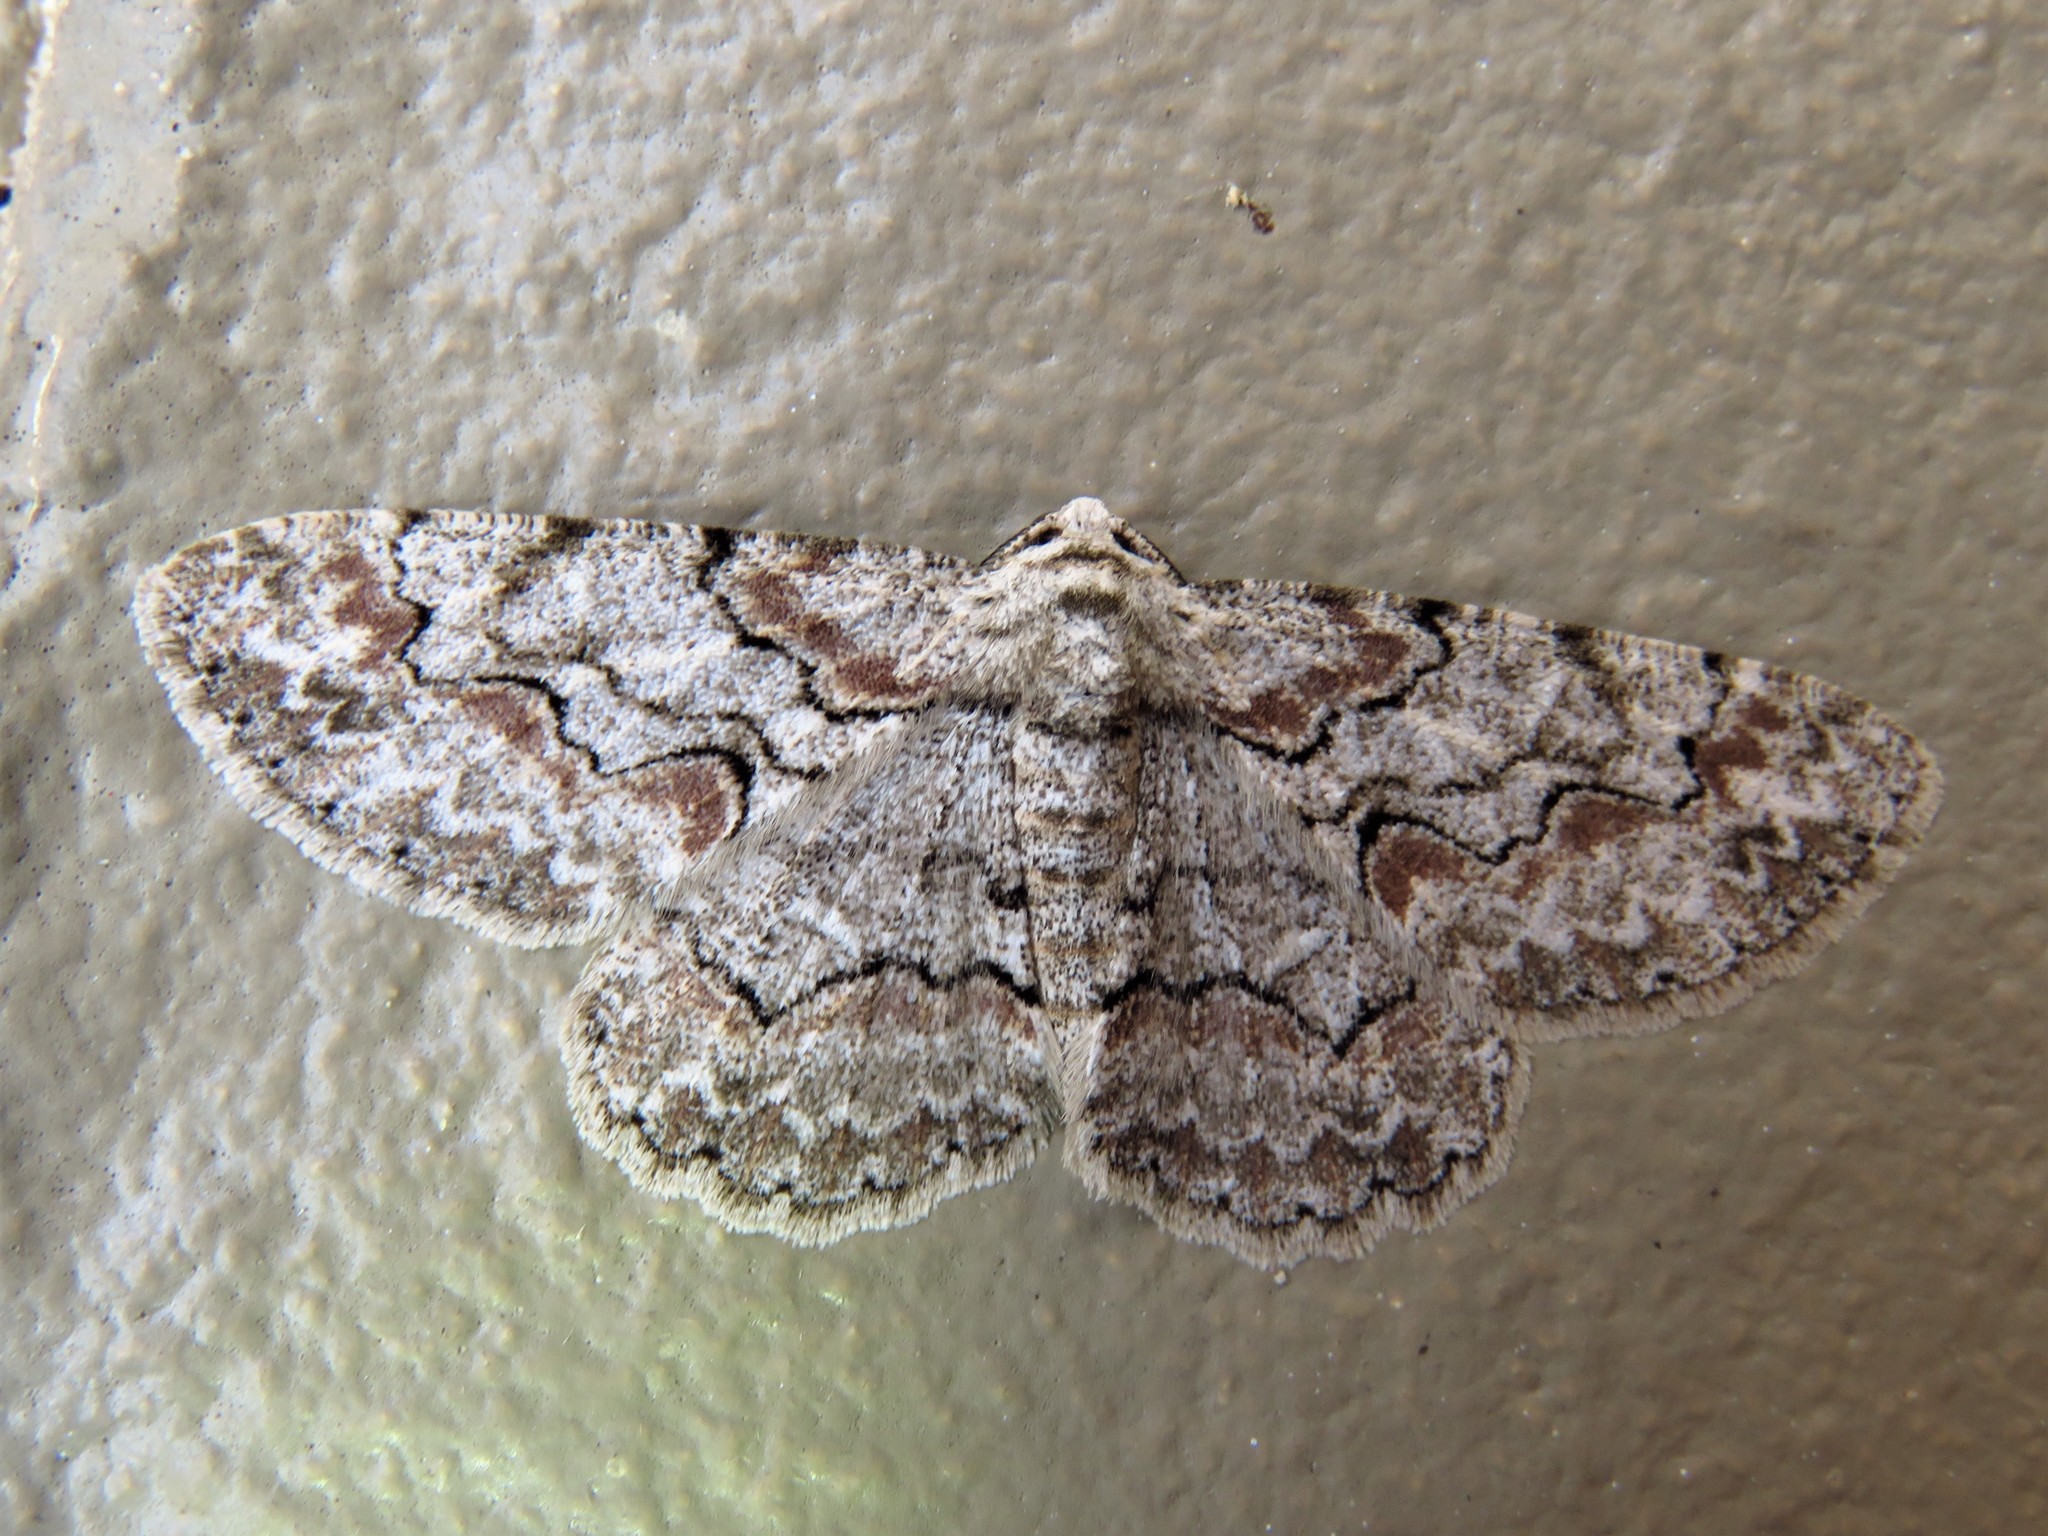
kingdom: Animalia
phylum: Arthropoda
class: Insecta
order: Lepidoptera
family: Geometridae
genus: Iridopsis
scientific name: Iridopsis defectaria
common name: Brown-shaded gray
